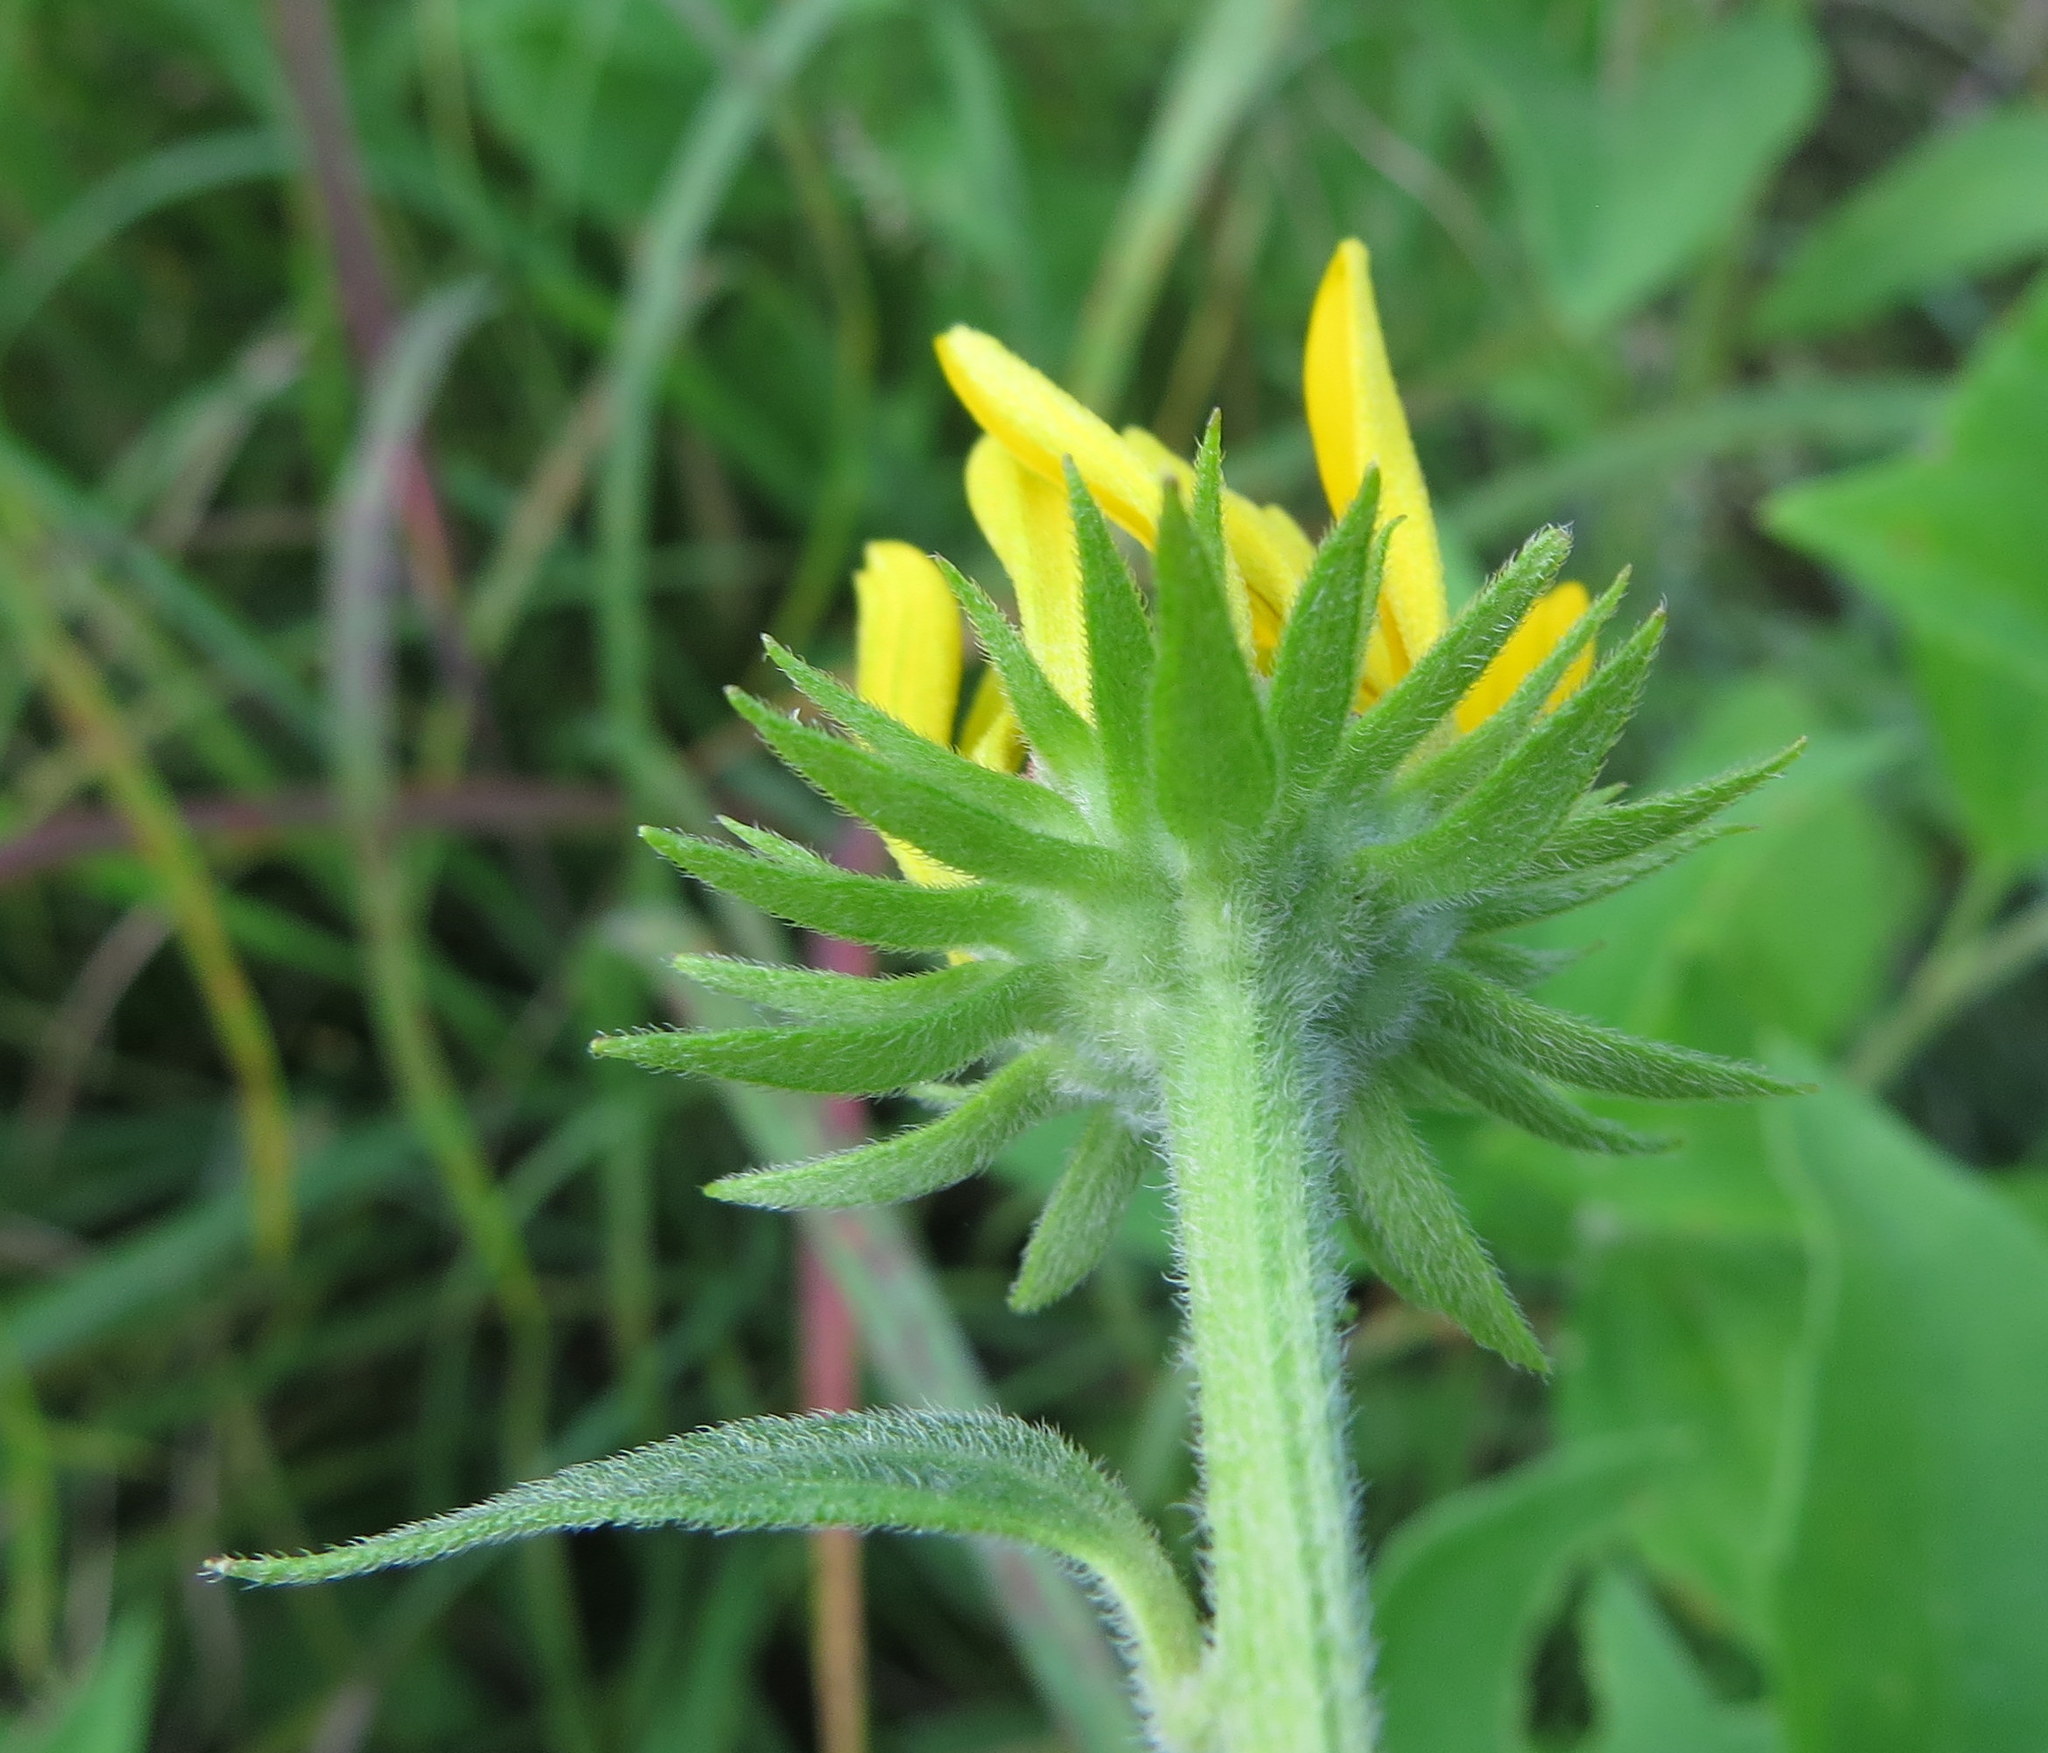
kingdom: Plantae
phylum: Tracheophyta
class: Magnoliopsida
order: Asterales
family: Asteraceae
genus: Rudbeckia
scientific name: Rudbeckia subtomentosa
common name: Sweet coneflower
